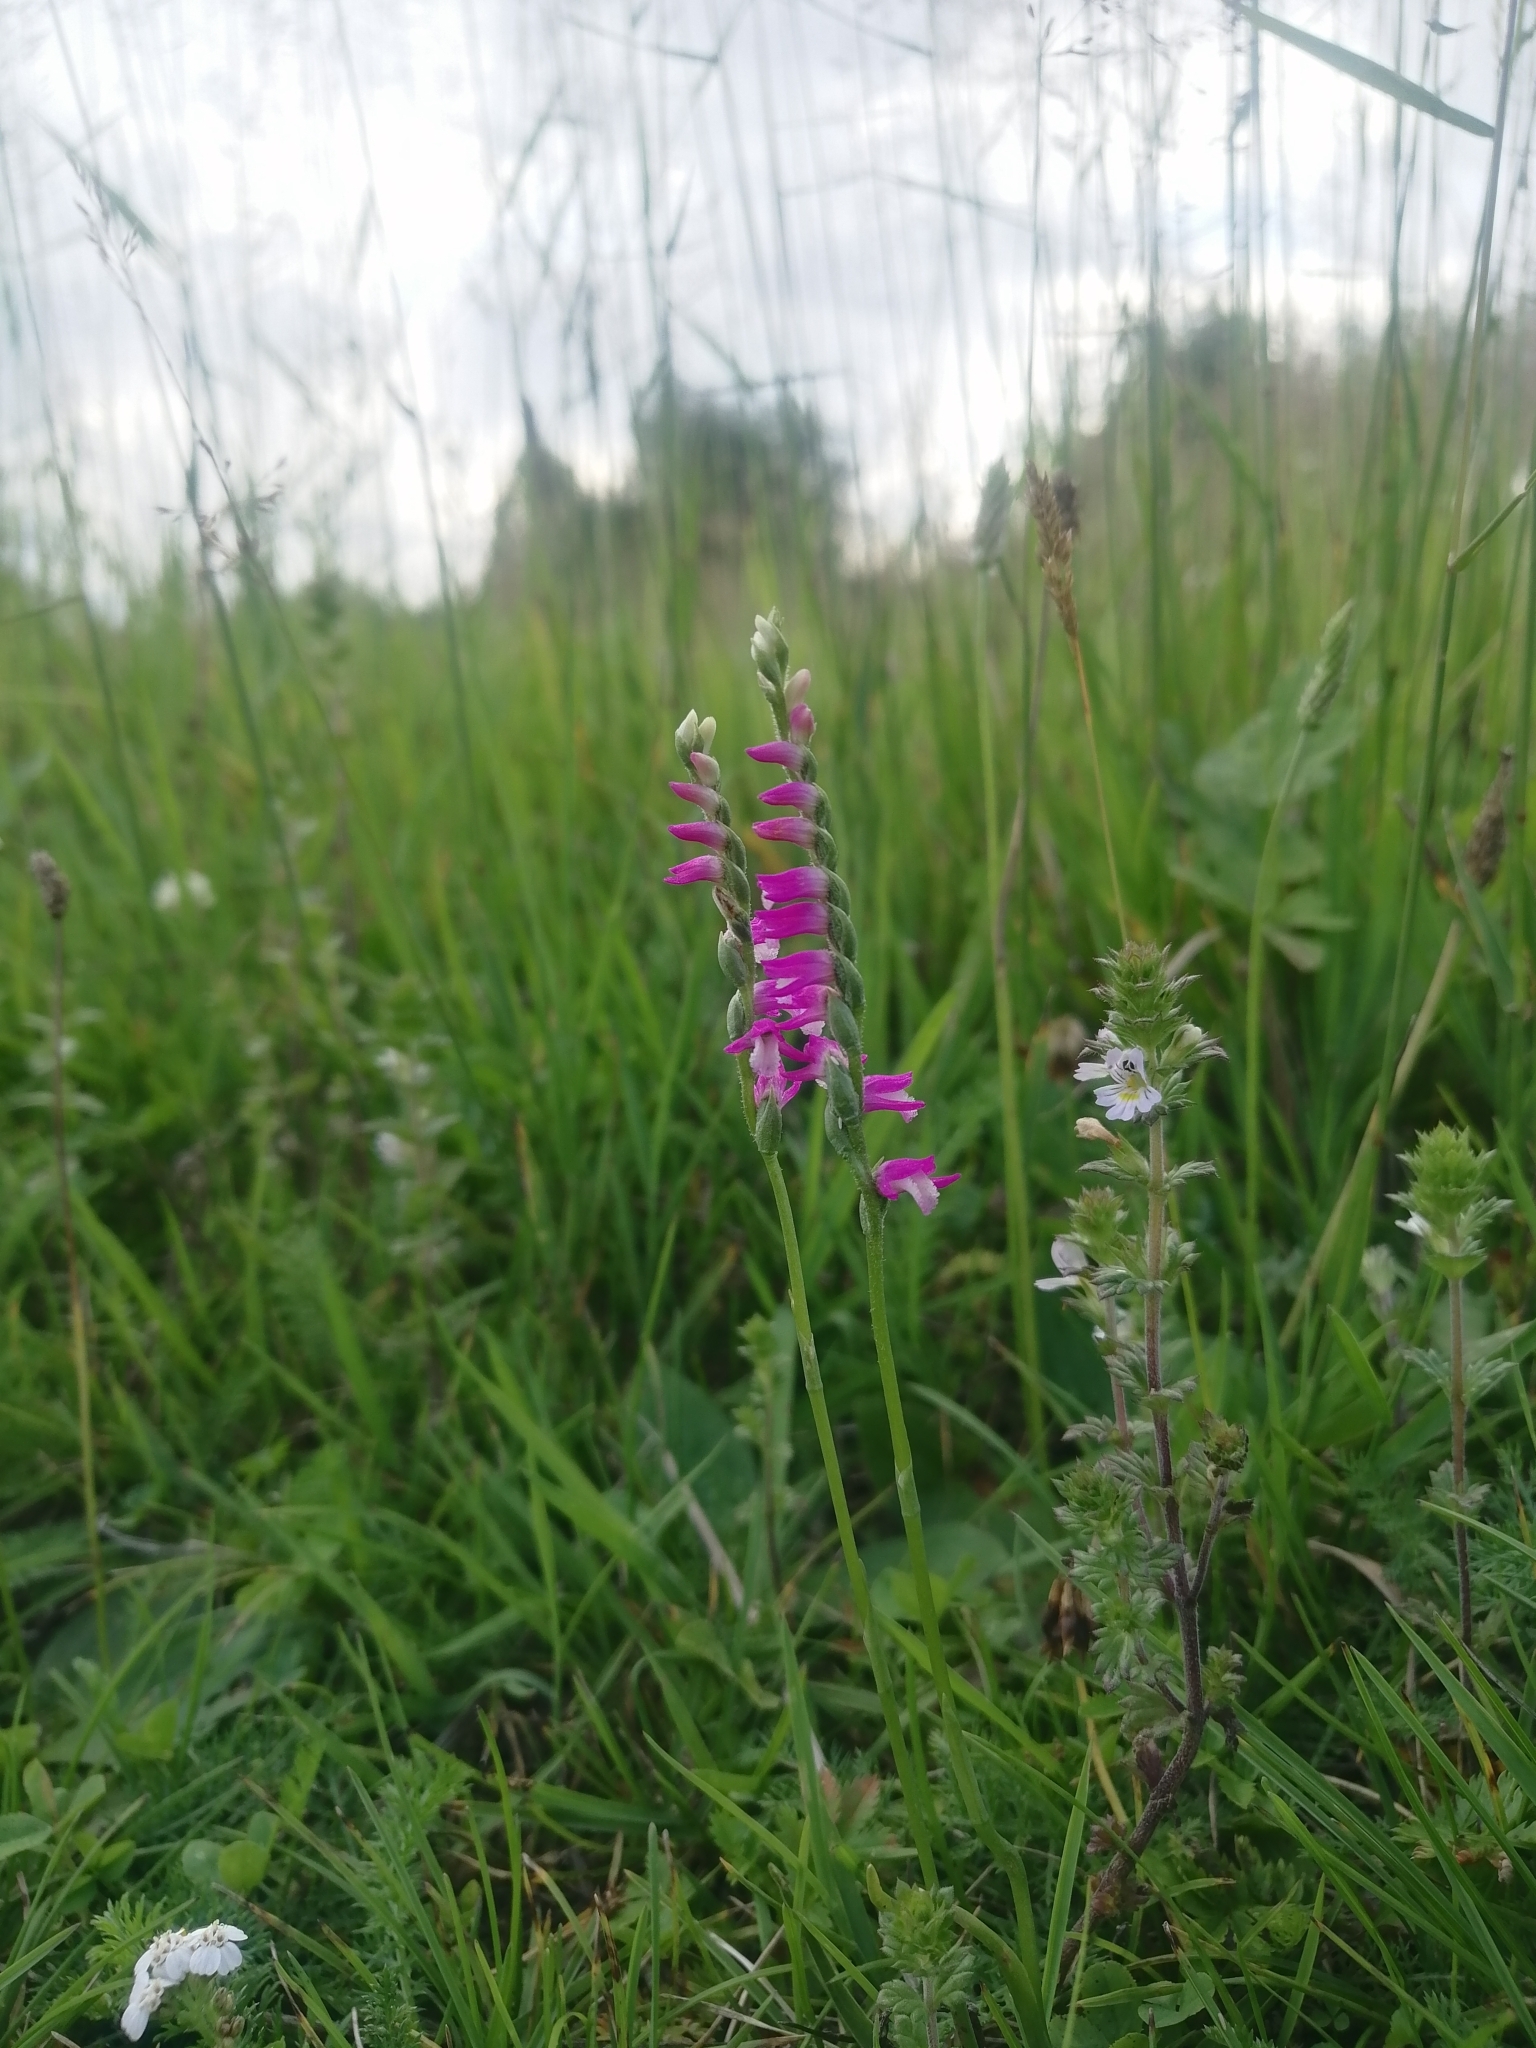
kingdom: Plantae
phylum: Tracheophyta
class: Liliopsida
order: Asparagales
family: Orchidaceae
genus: Spiranthes
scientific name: Spiranthes australis
